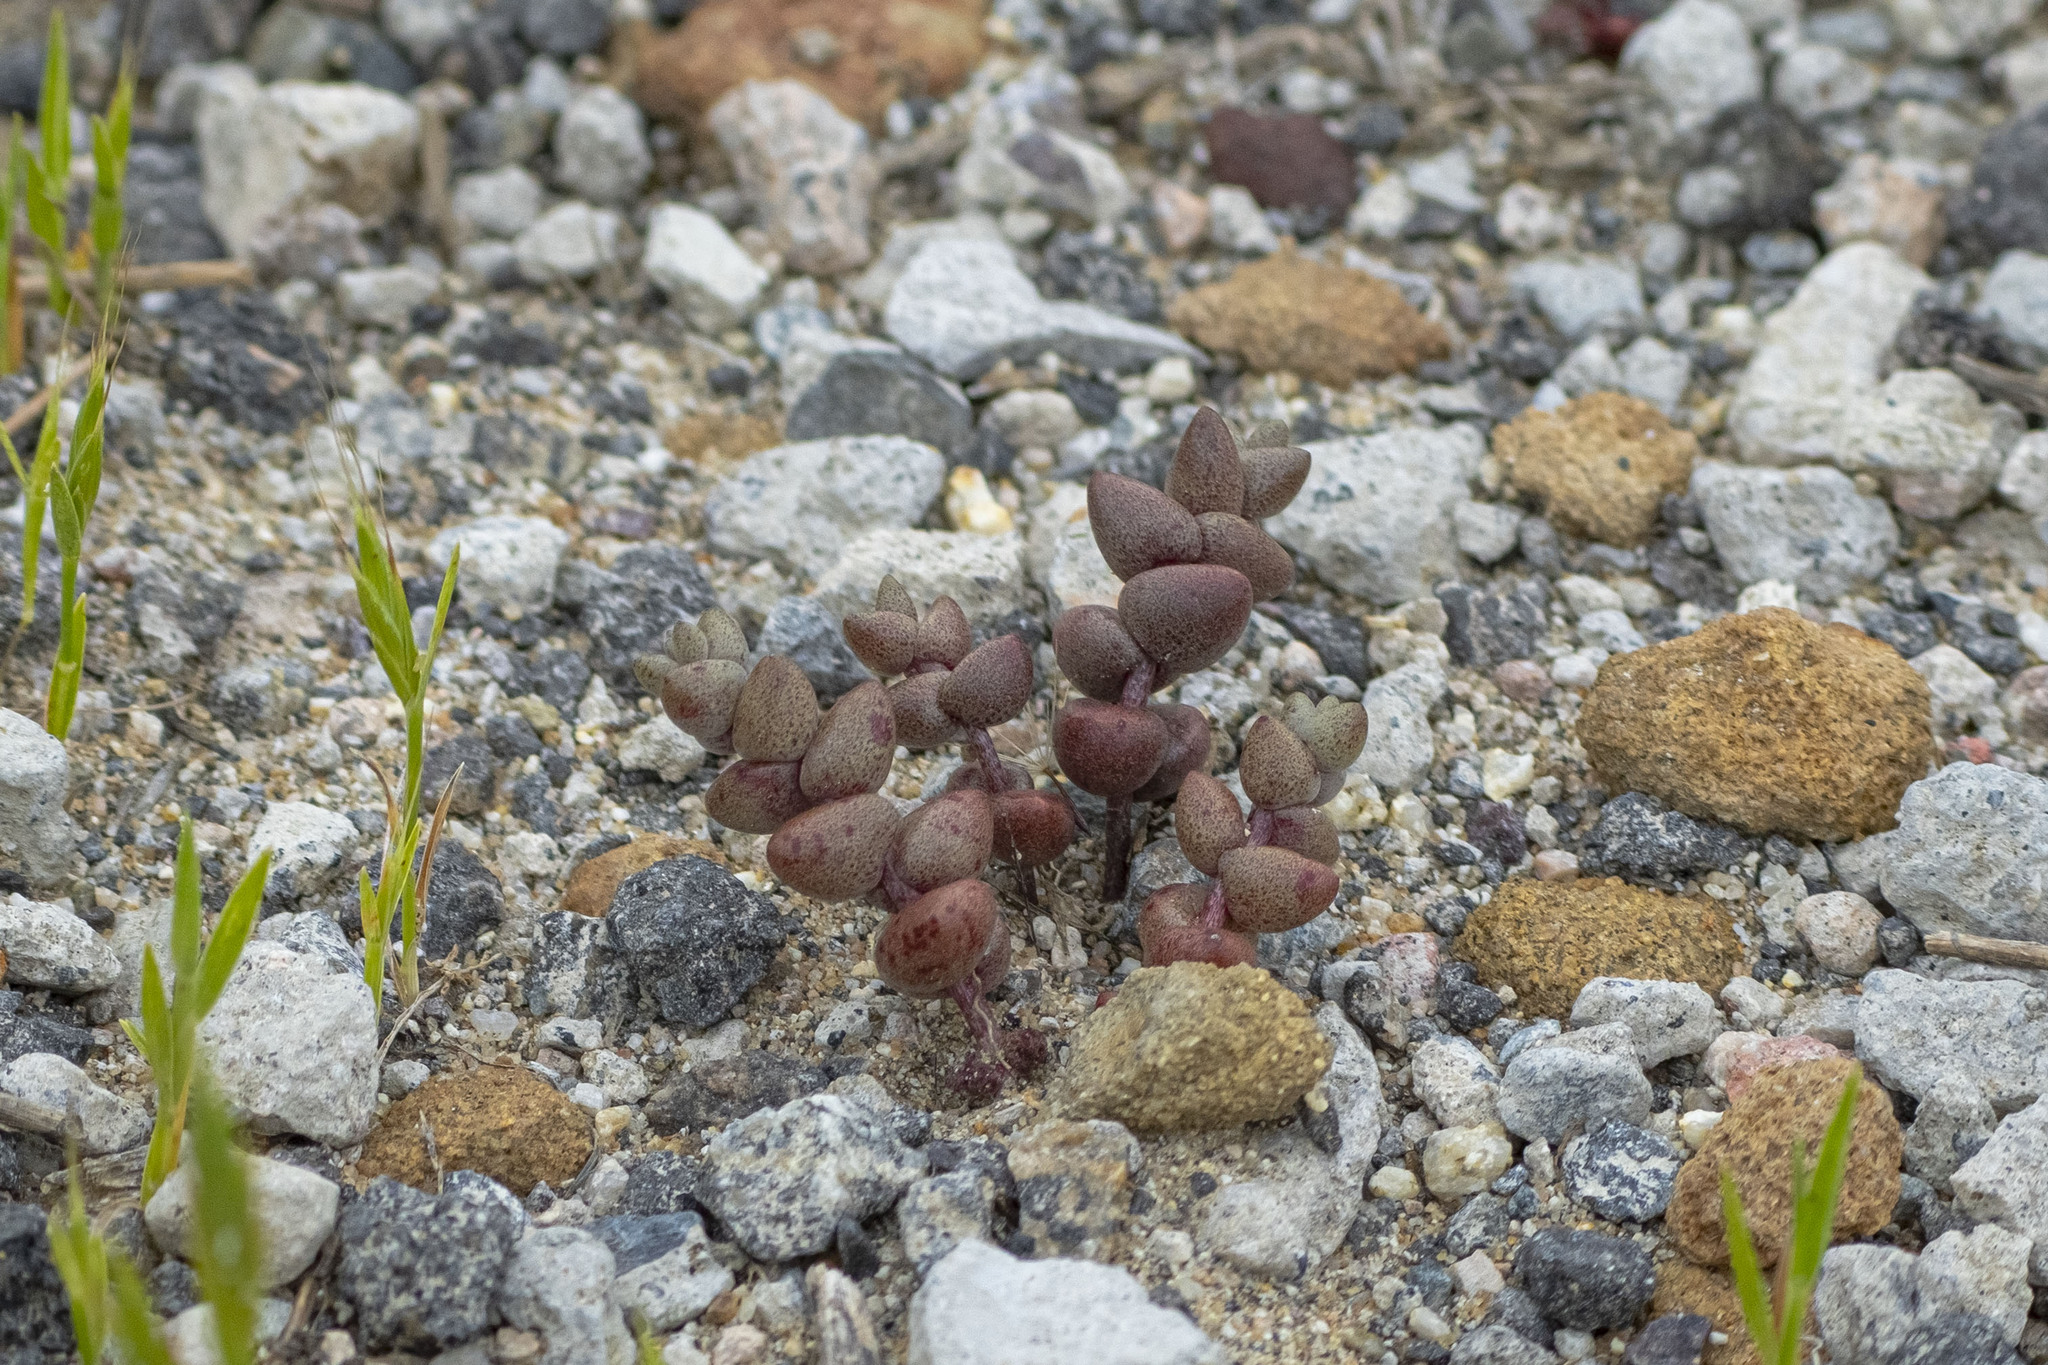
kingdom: Plantae
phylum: Tracheophyta
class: Magnoliopsida
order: Saxifragales
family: Crassulaceae
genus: Dudleya
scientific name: Dudleya blochmaniae
